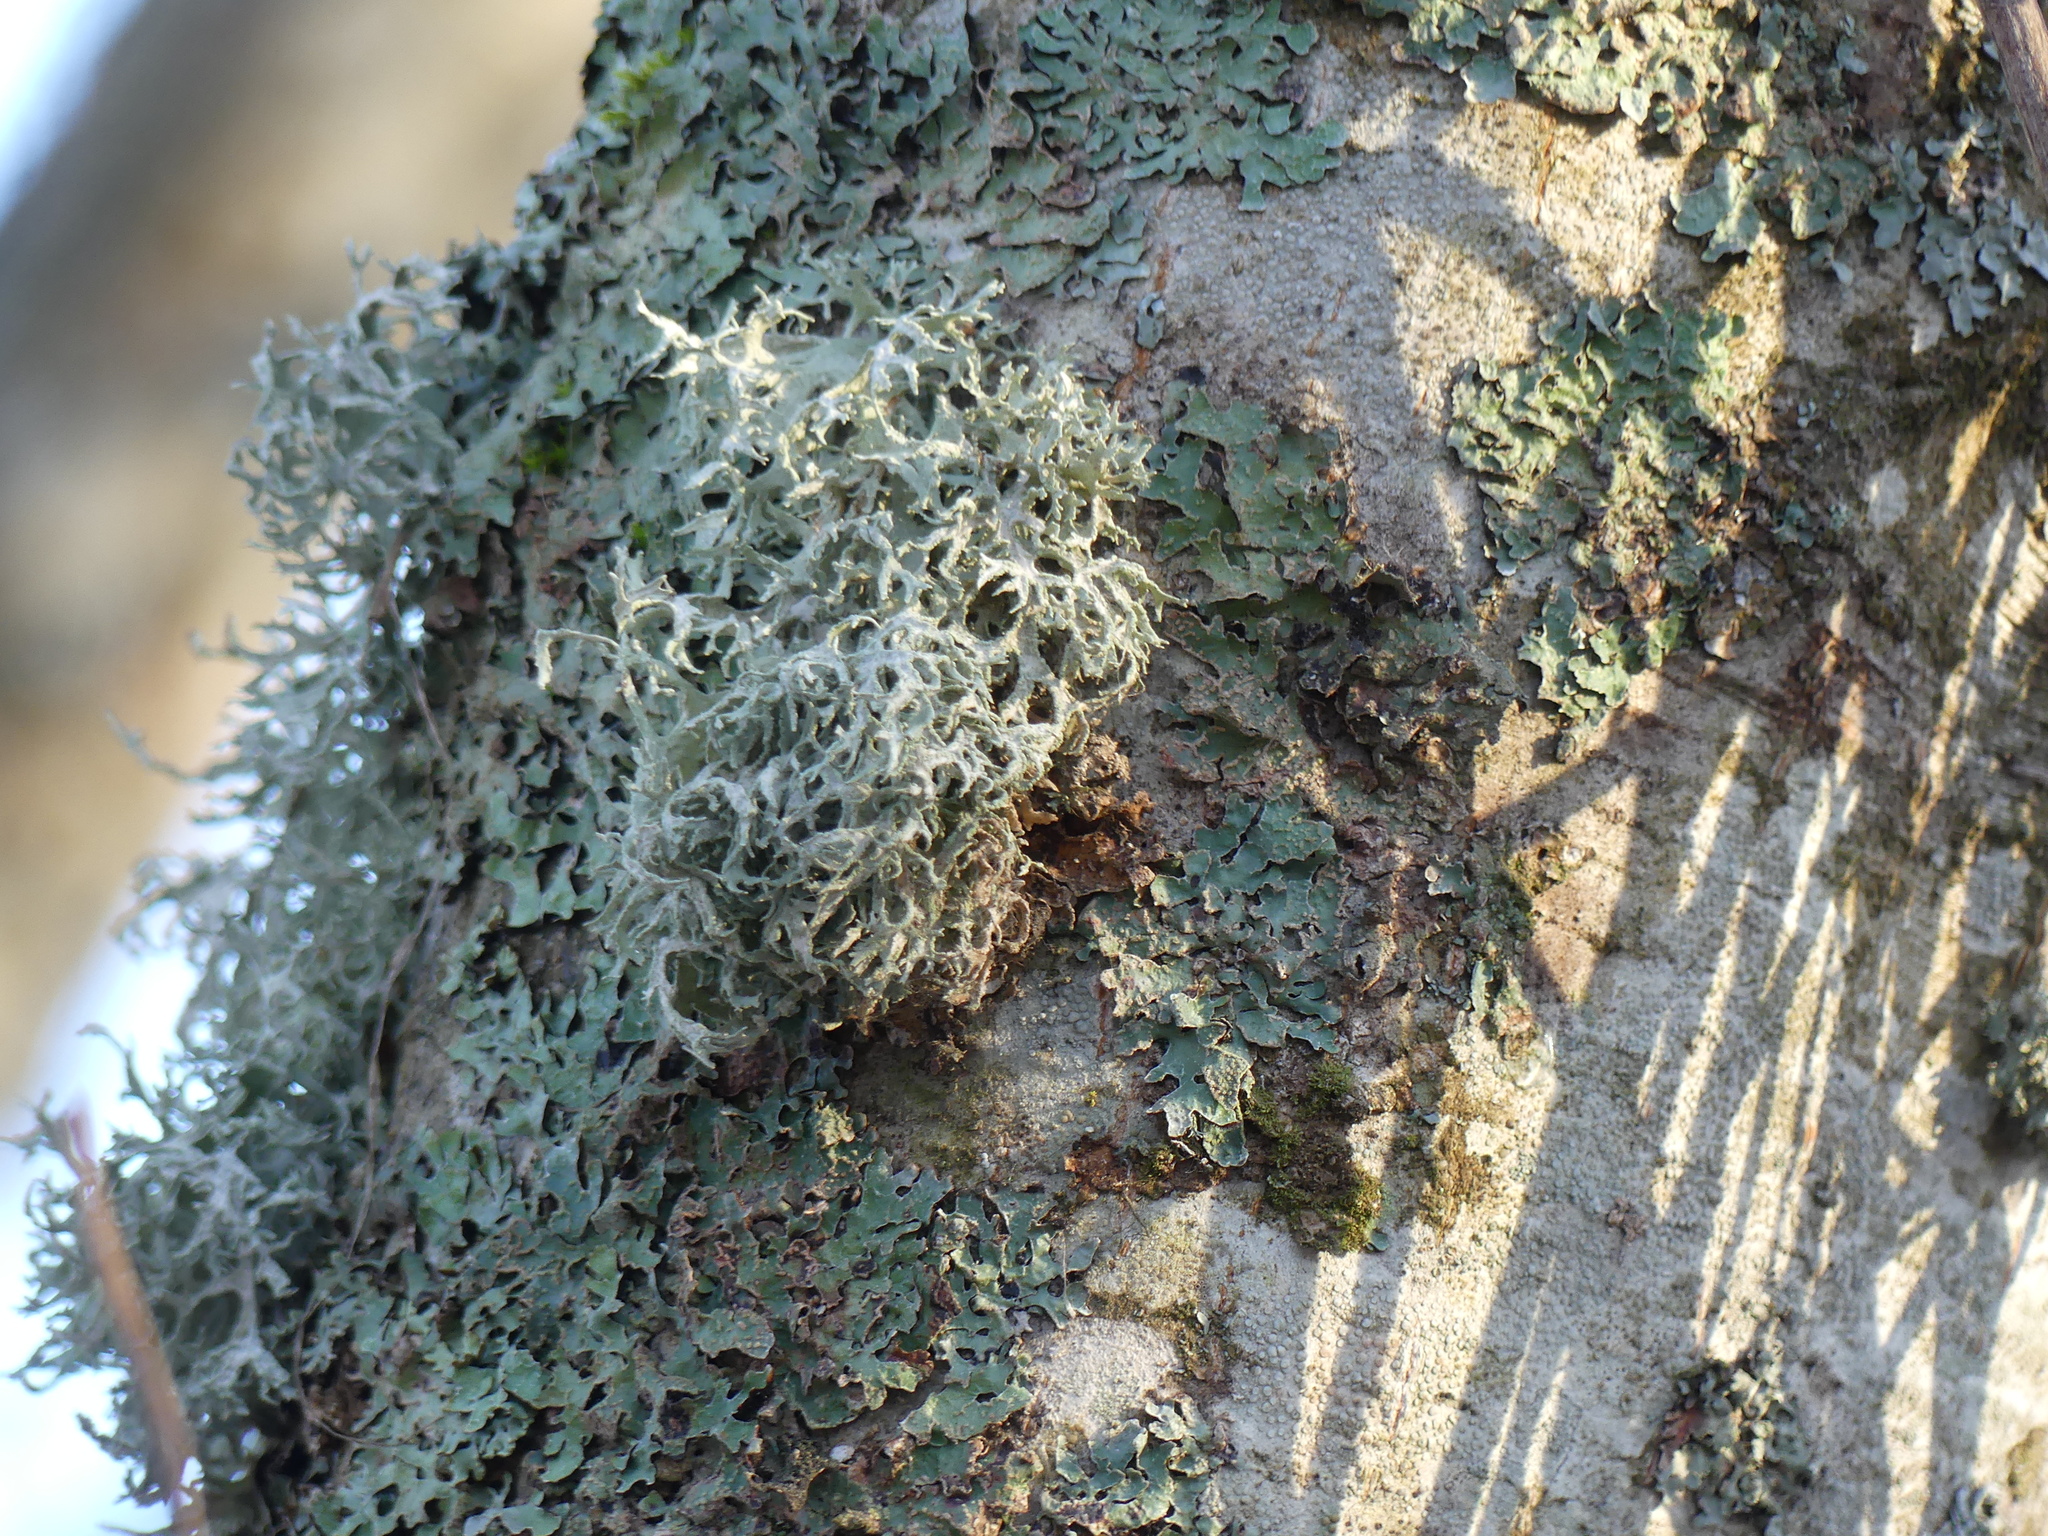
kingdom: Fungi
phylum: Ascomycota
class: Lecanoromycetes
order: Lecanorales
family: Parmeliaceae
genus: Evernia
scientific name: Evernia prunastri
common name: Oak moss
